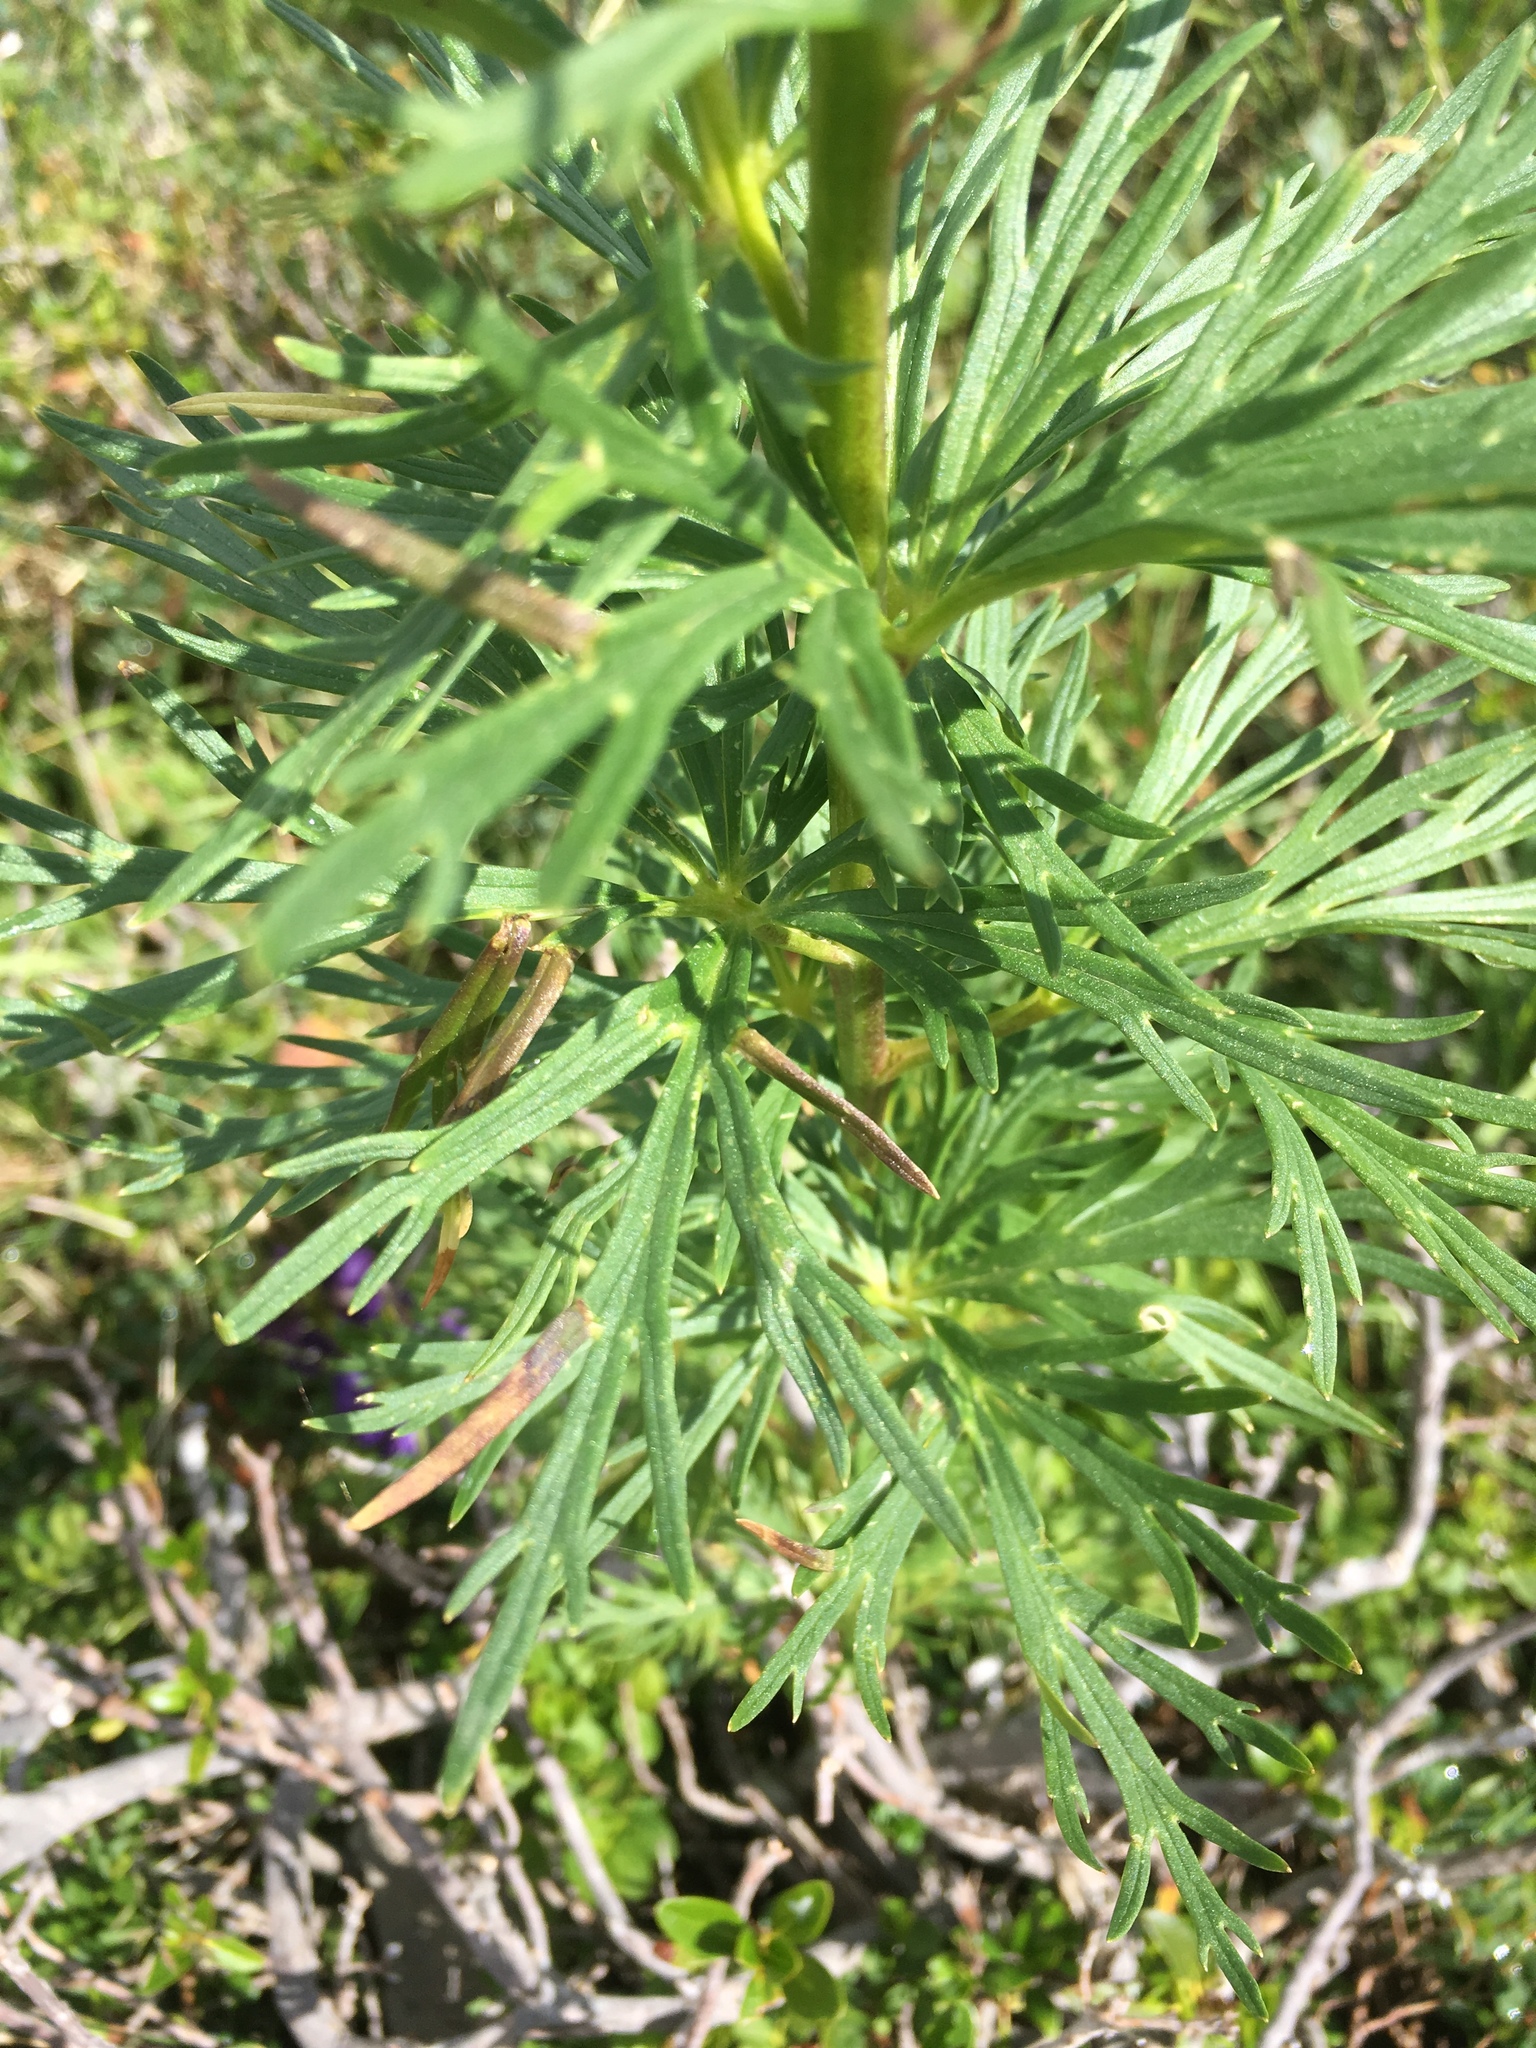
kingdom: Plantae
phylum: Tracheophyta
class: Magnoliopsida
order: Ranunculales
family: Ranunculaceae
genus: Aconitum
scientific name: Aconitum tauricum
